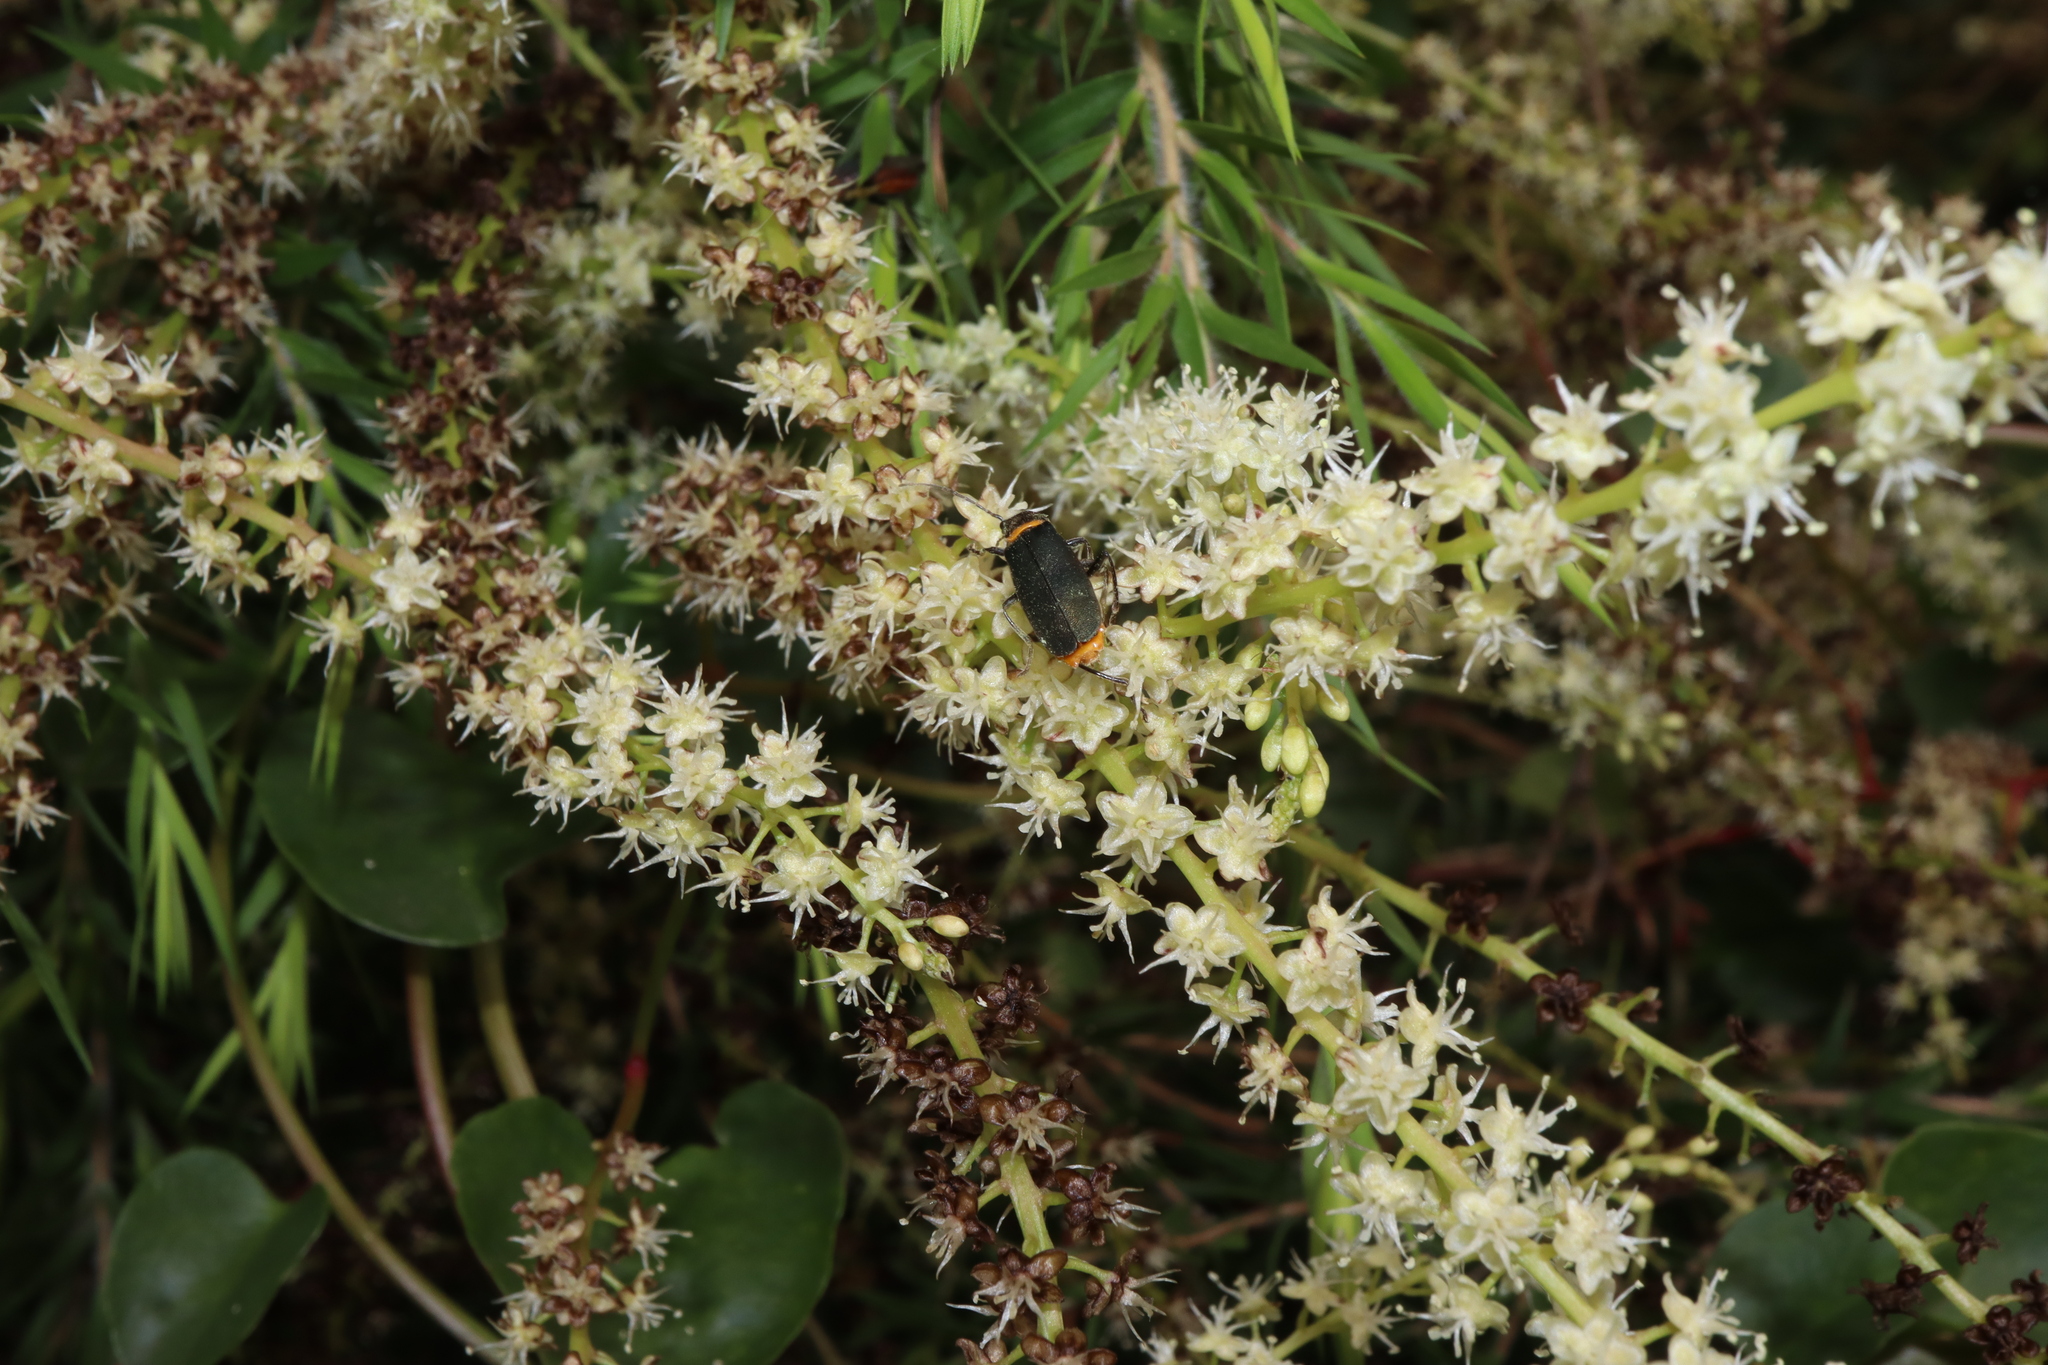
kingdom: Animalia
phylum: Arthropoda
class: Insecta
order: Coleoptera
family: Cantharidae
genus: Chauliognathus
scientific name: Chauliognathus
